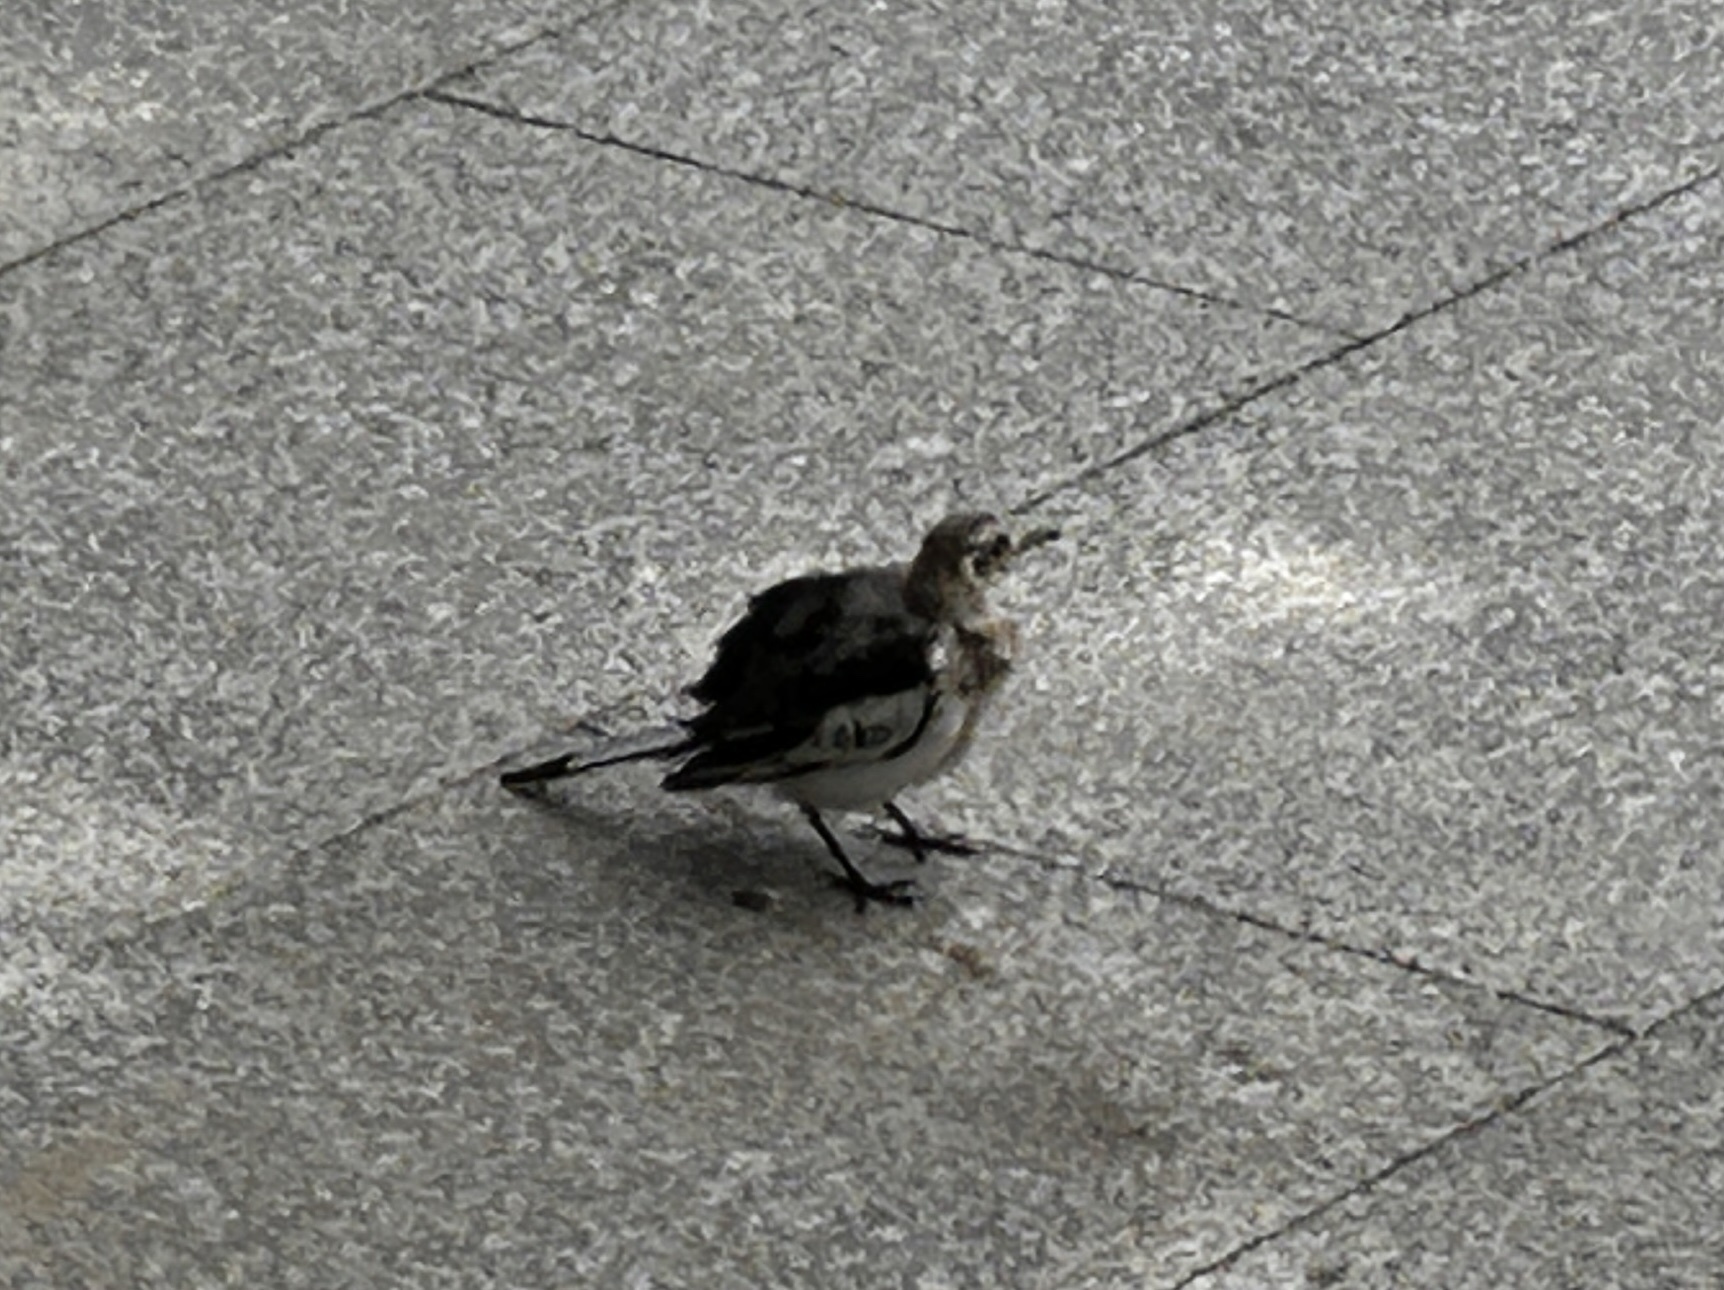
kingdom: Animalia
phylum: Chordata
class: Aves
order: Passeriformes
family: Motacillidae
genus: Motacilla
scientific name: Motacilla alba
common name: White wagtail
